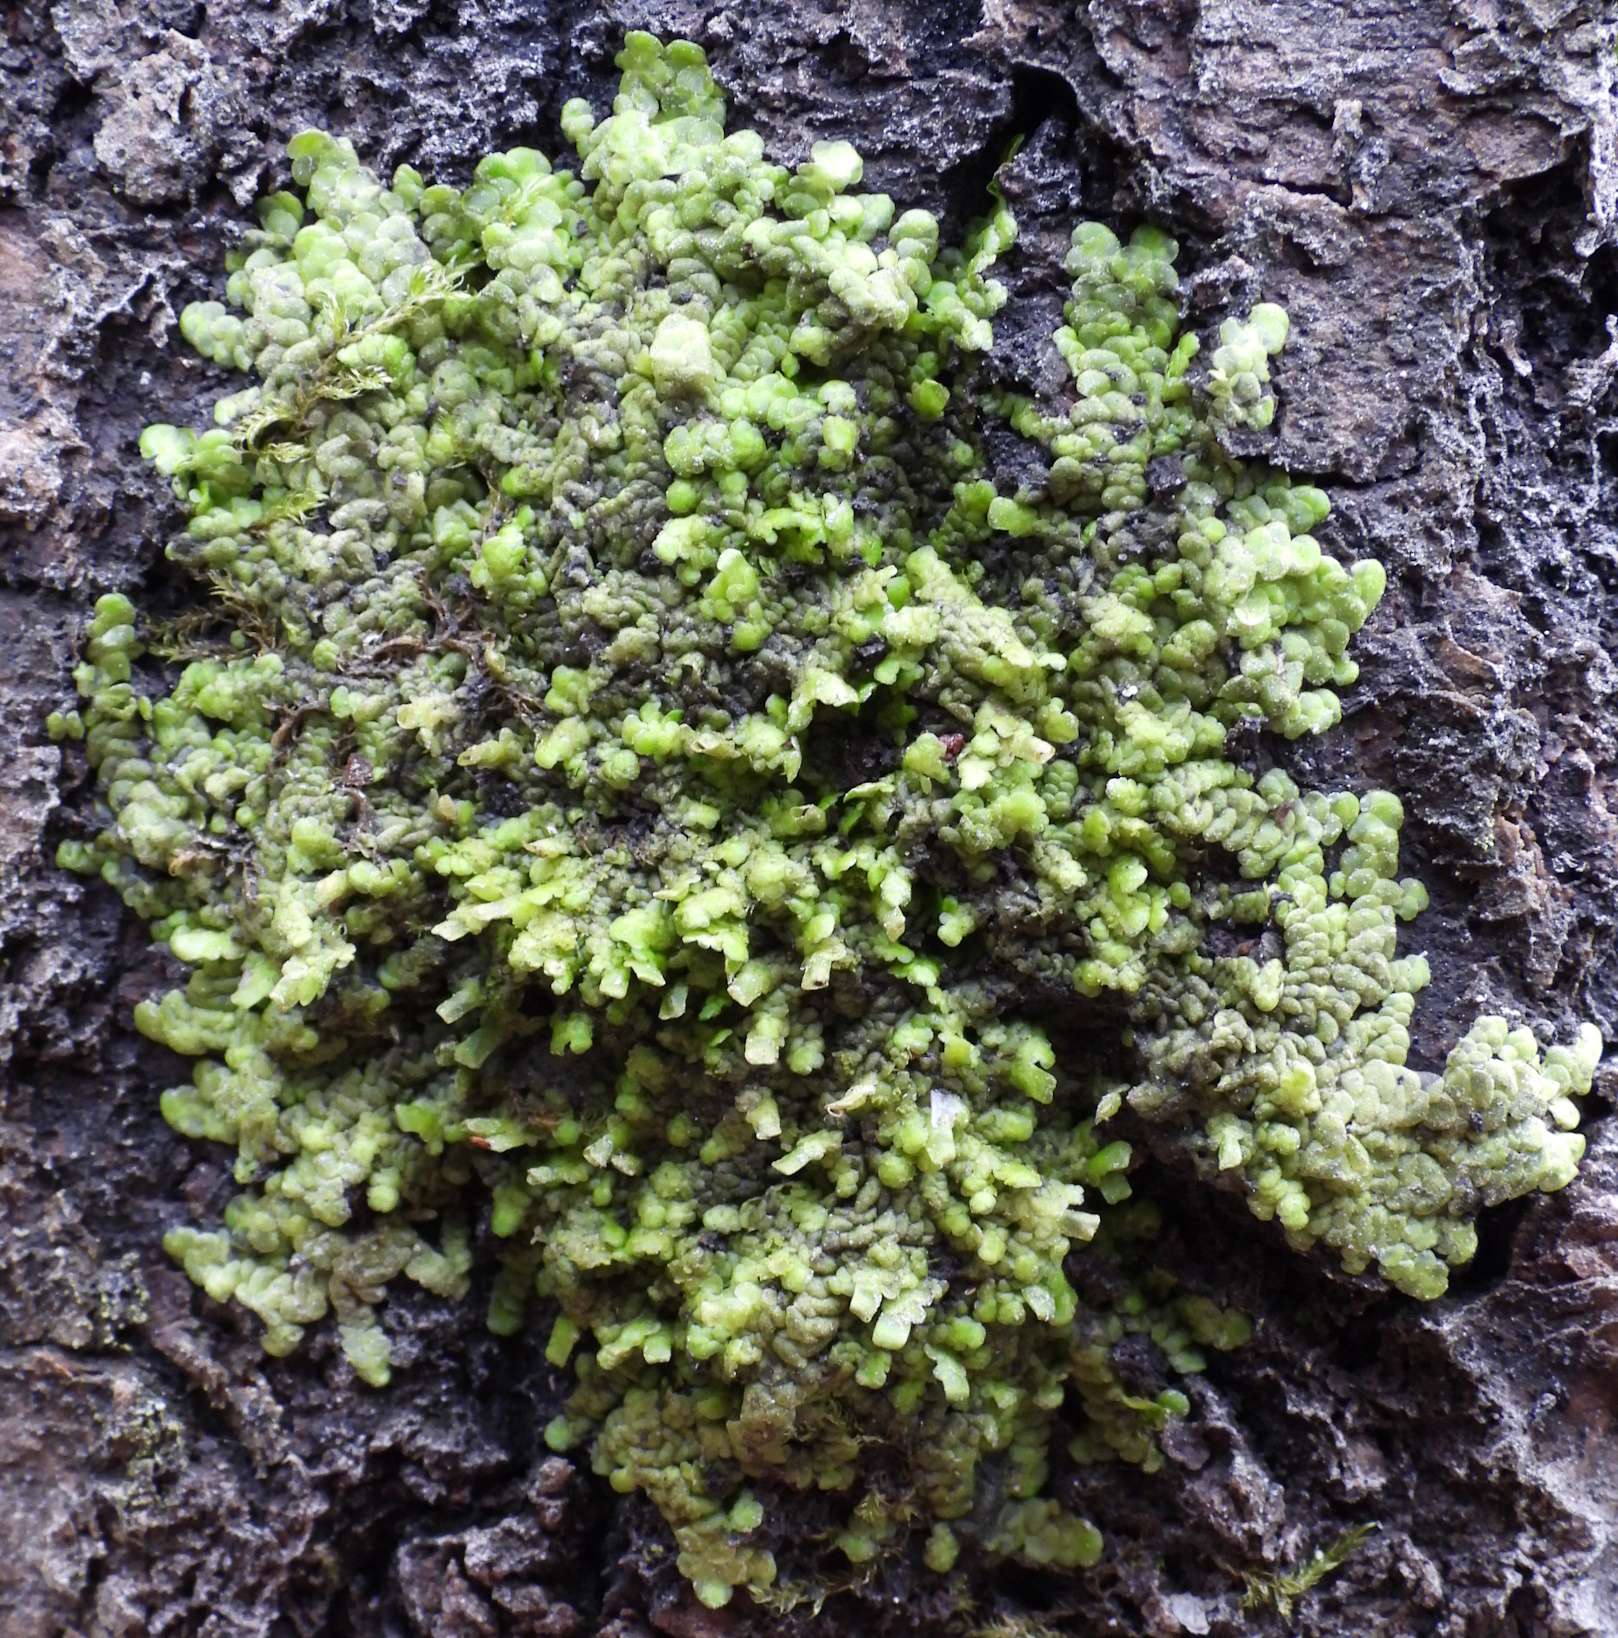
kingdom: Plantae
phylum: Marchantiophyta
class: Jungermanniopsida
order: Porellales
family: Radulaceae
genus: Radula
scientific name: Radula complanata
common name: Flat-leaved scalewort
